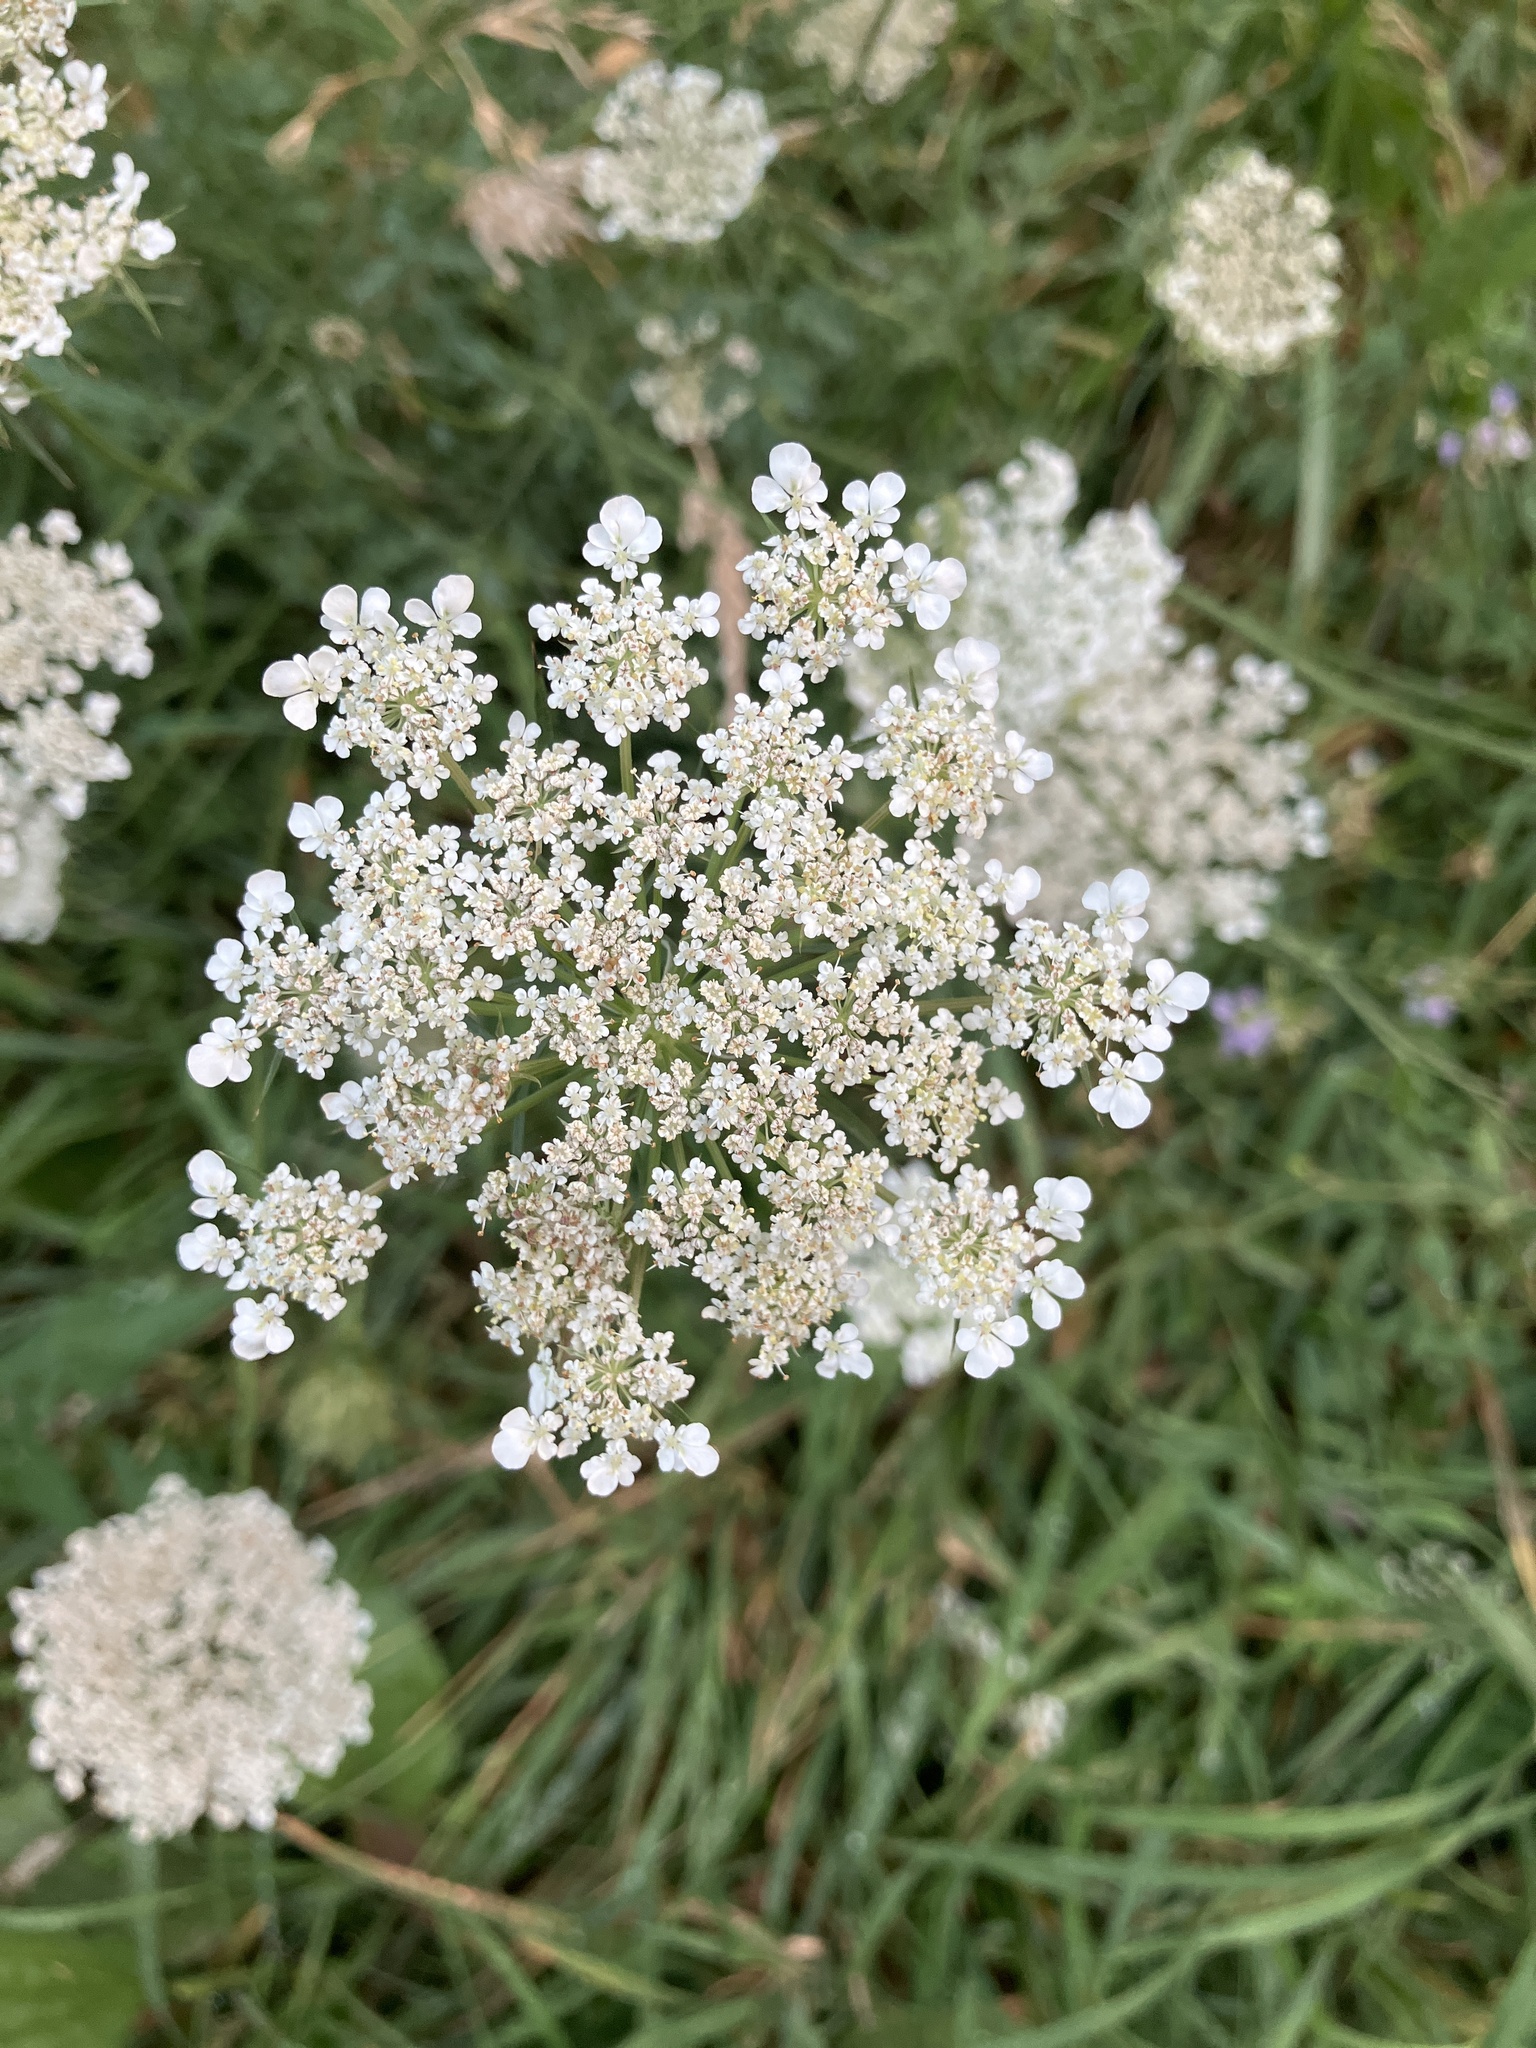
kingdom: Plantae
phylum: Tracheophyta
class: Magnoliopsida
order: Asterales
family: Asteraceae
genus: Achillea
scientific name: Achillea millefolium
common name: Yarrow
